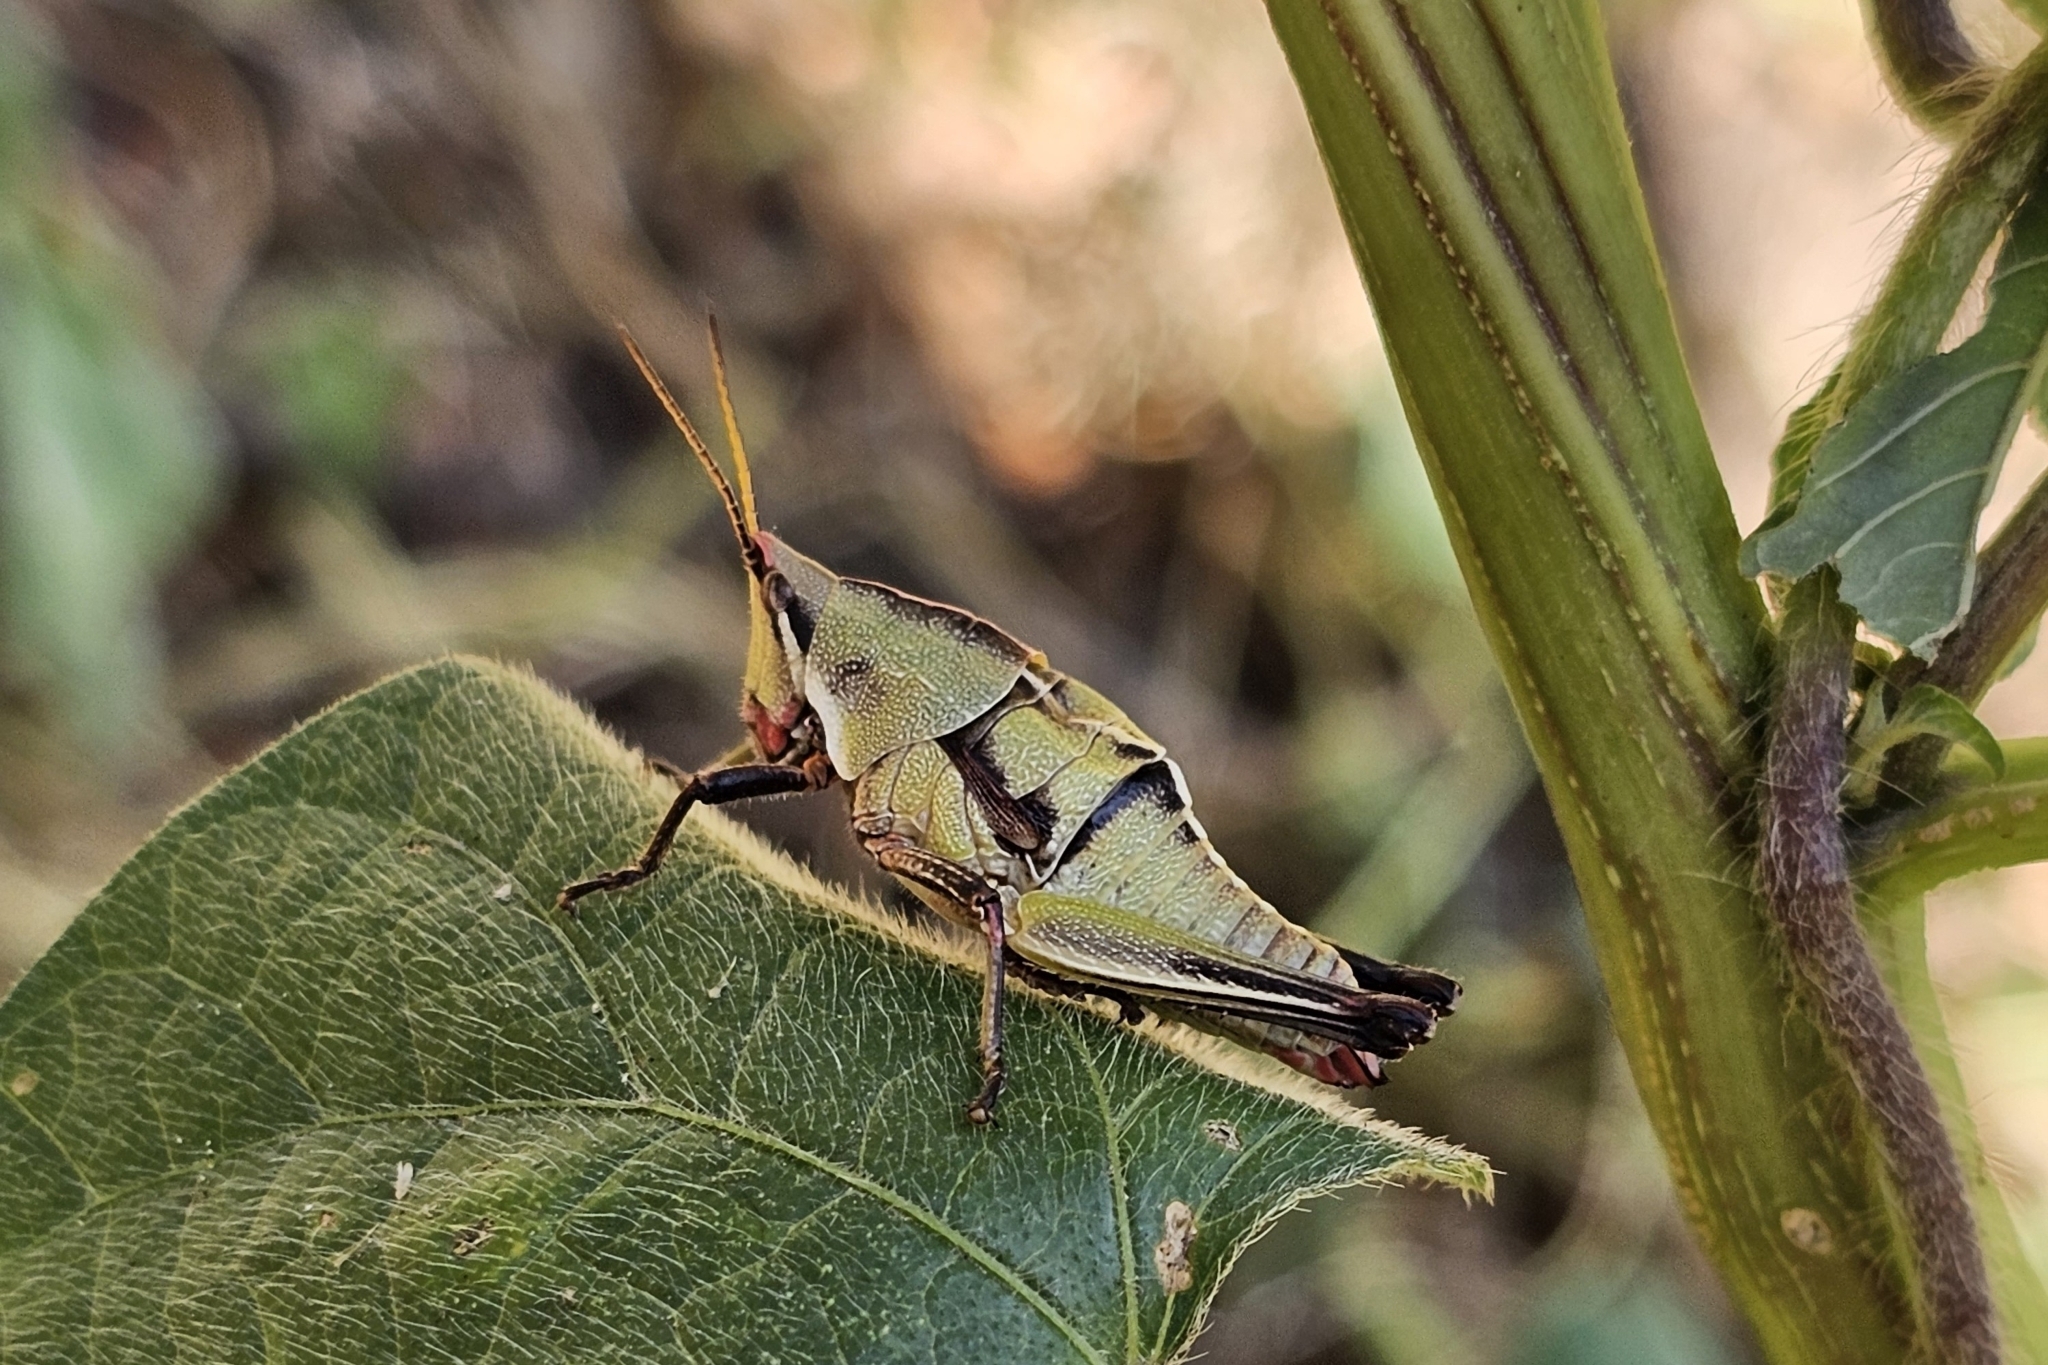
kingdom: Animalia
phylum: Arthropoda
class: Insecta
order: Orthoptera
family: Pyrgomorphidae
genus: Sphenarium
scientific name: Sphenarium purpurascens
